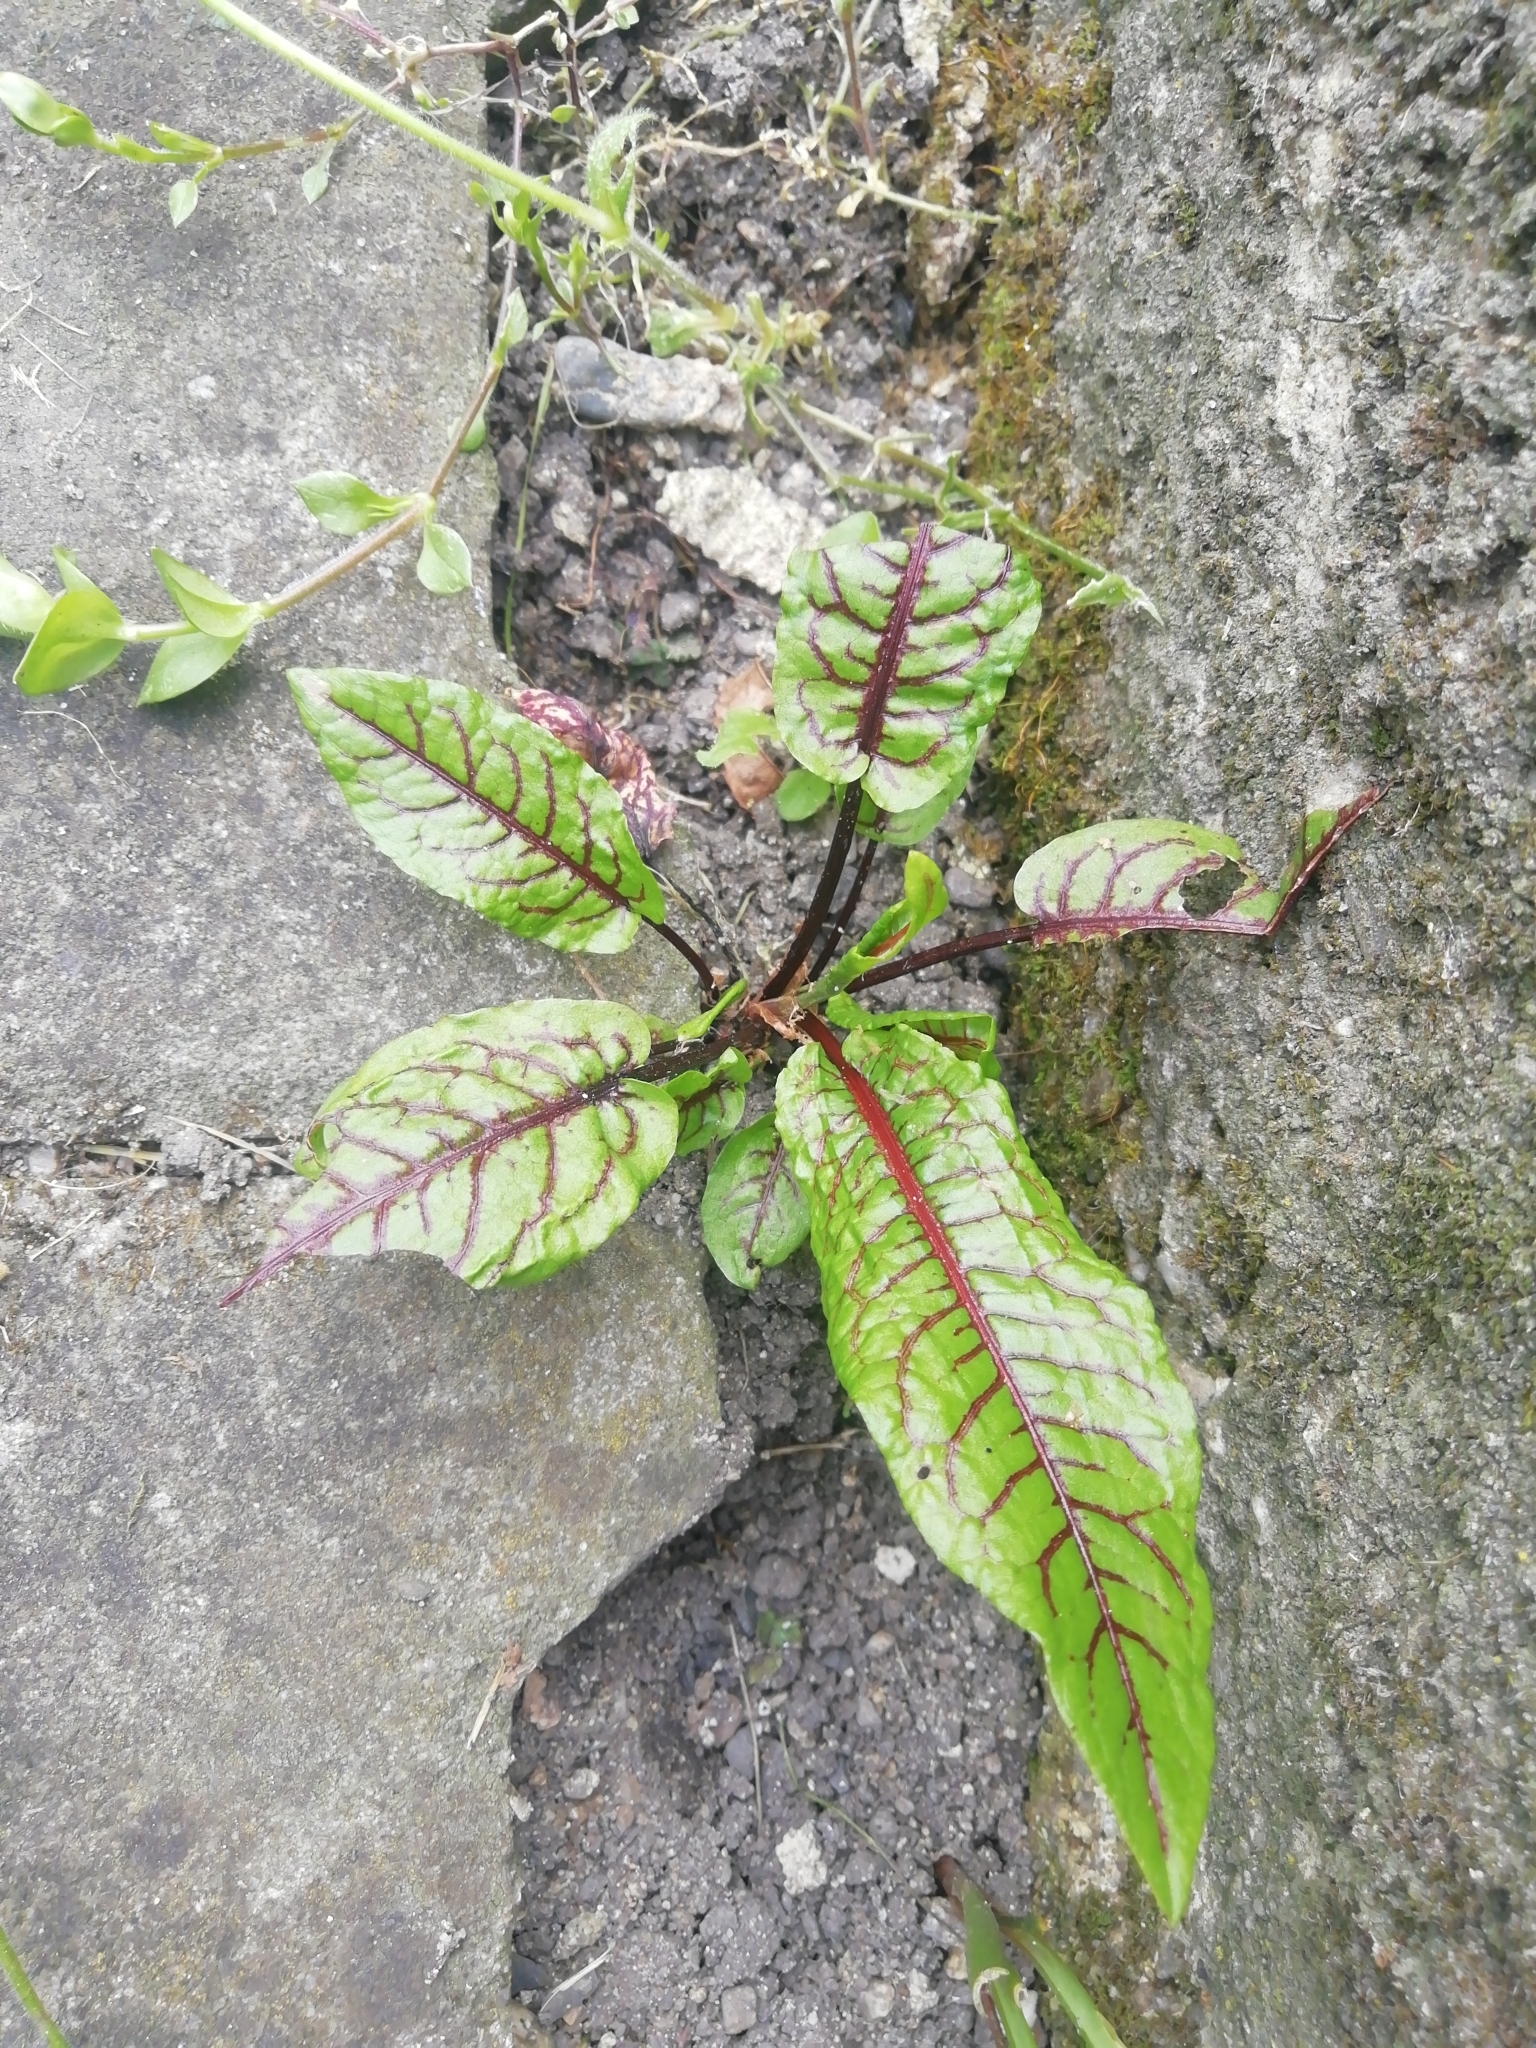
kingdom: Plantae
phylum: Tracheophyta
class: Magnoliopsida
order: Caryophyllales
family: Polygonaceae
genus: Rumex
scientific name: Rumex sanguineus
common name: Wood dock
